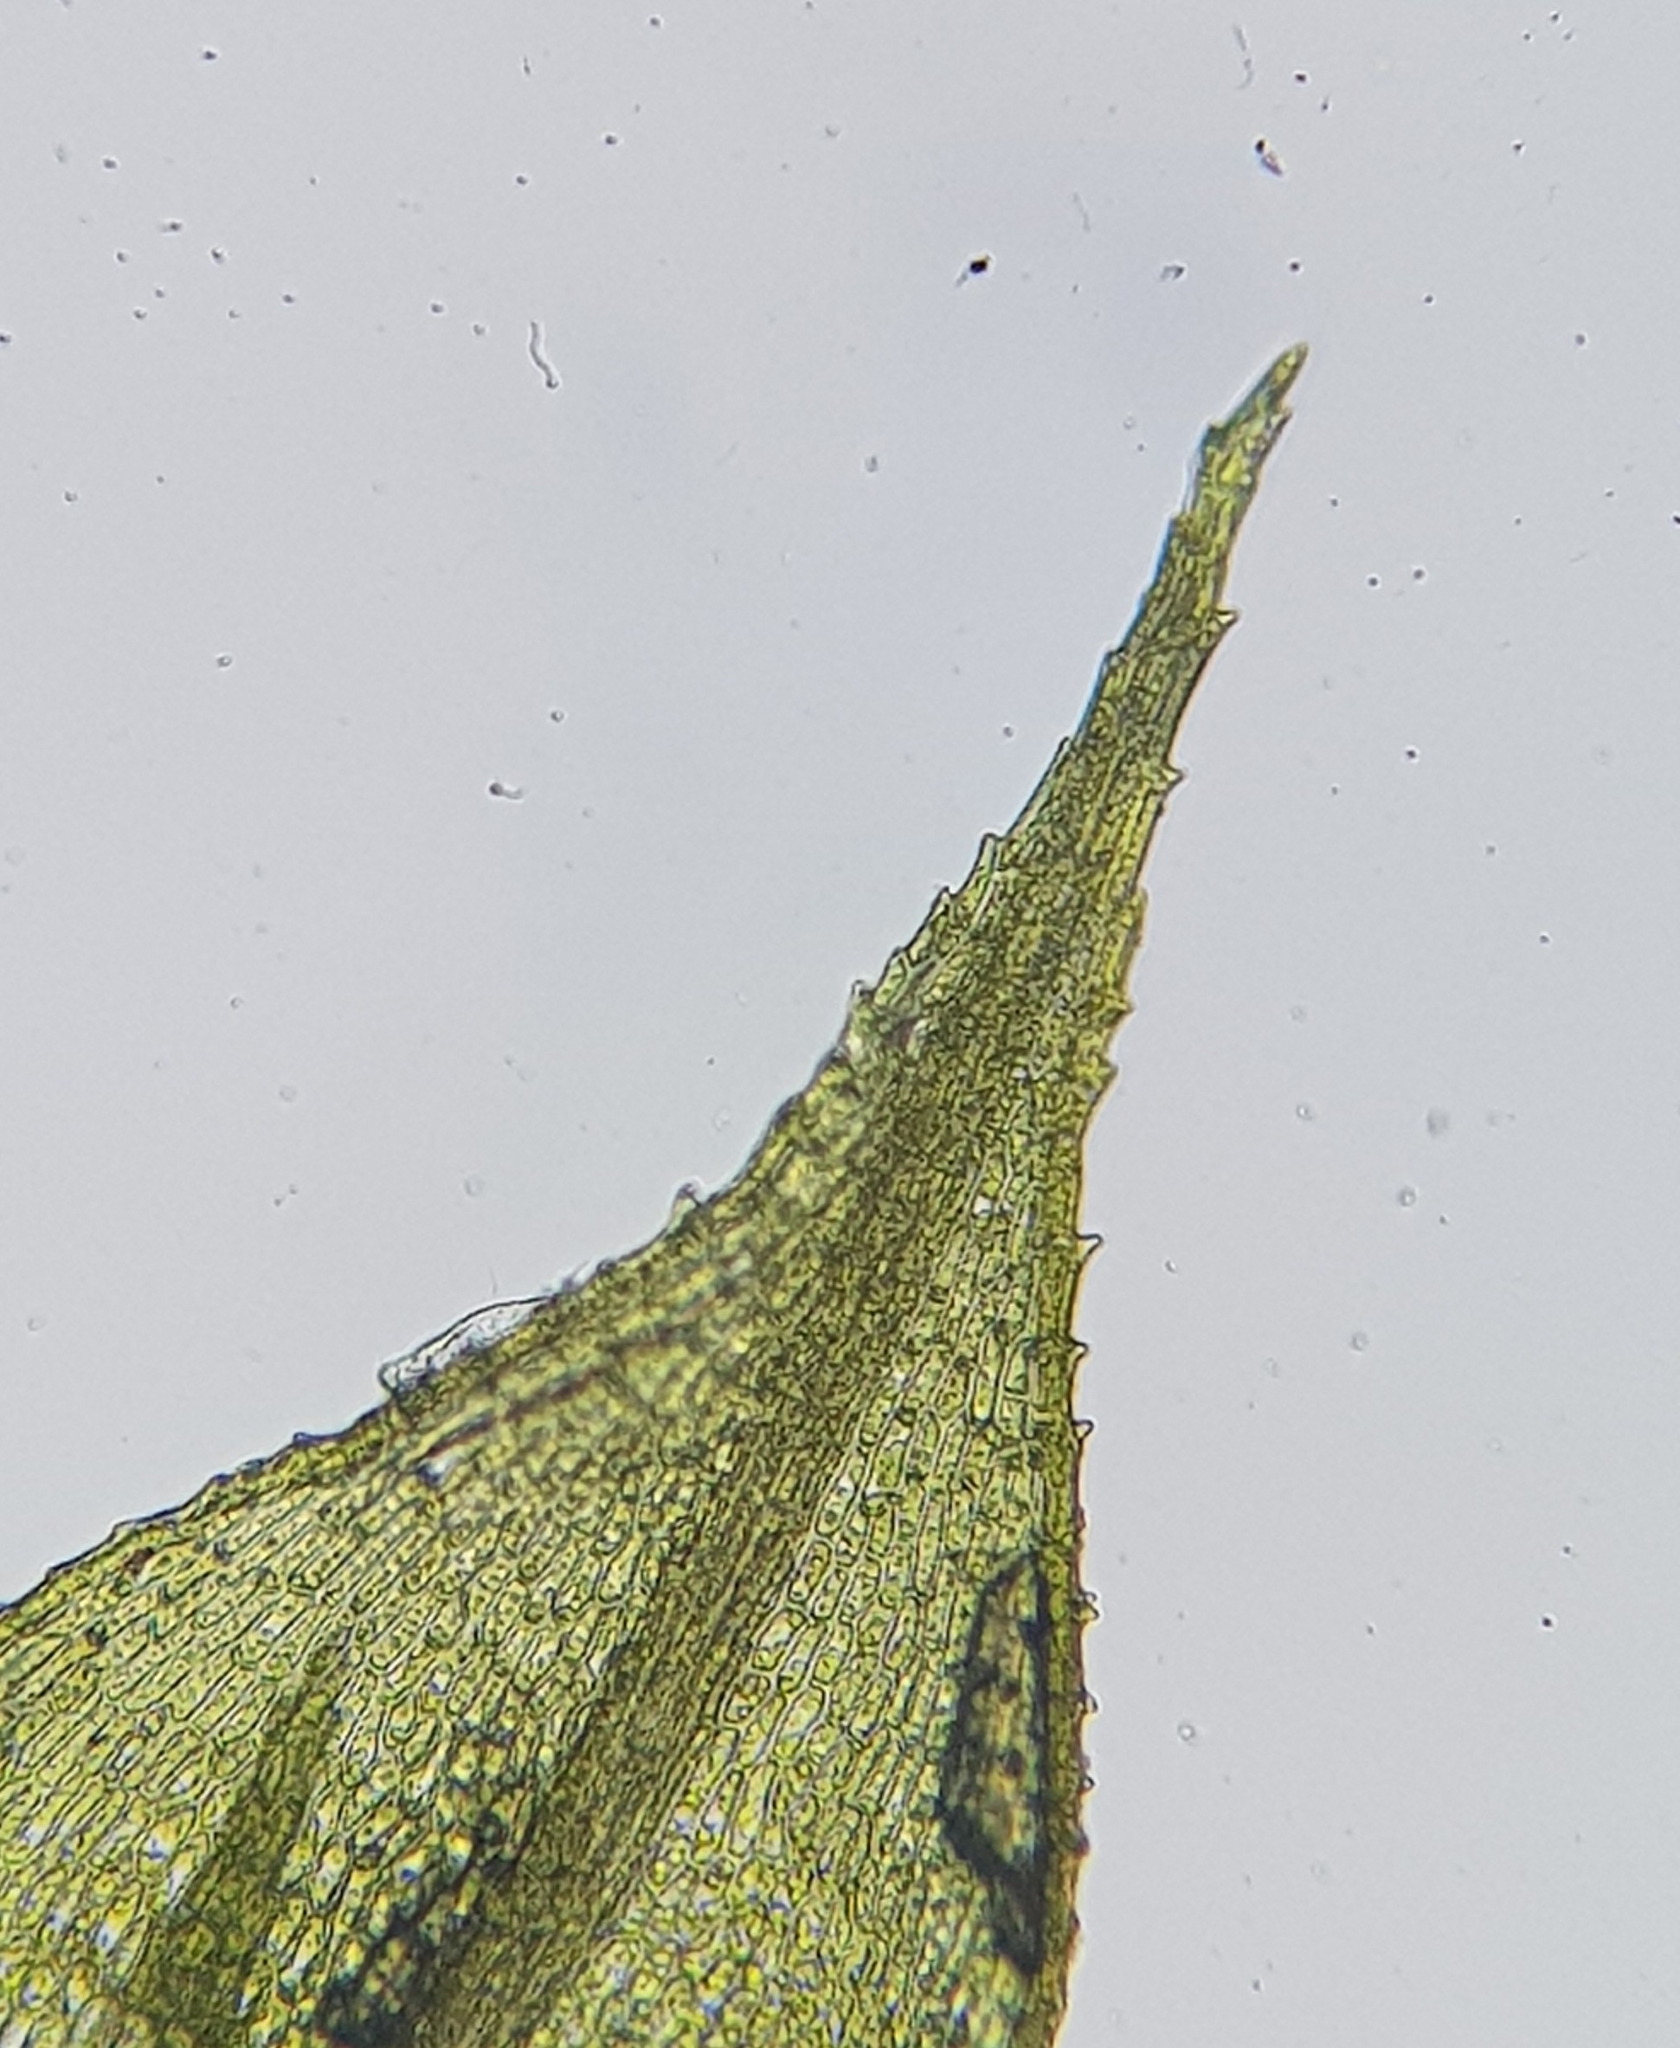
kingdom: Plantae
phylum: Bryophyta
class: Bryopsida
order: Bartramiales
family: Bartramiaceae
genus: Philonotis
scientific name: Philonotis fontana
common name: Fountain apple-moss
